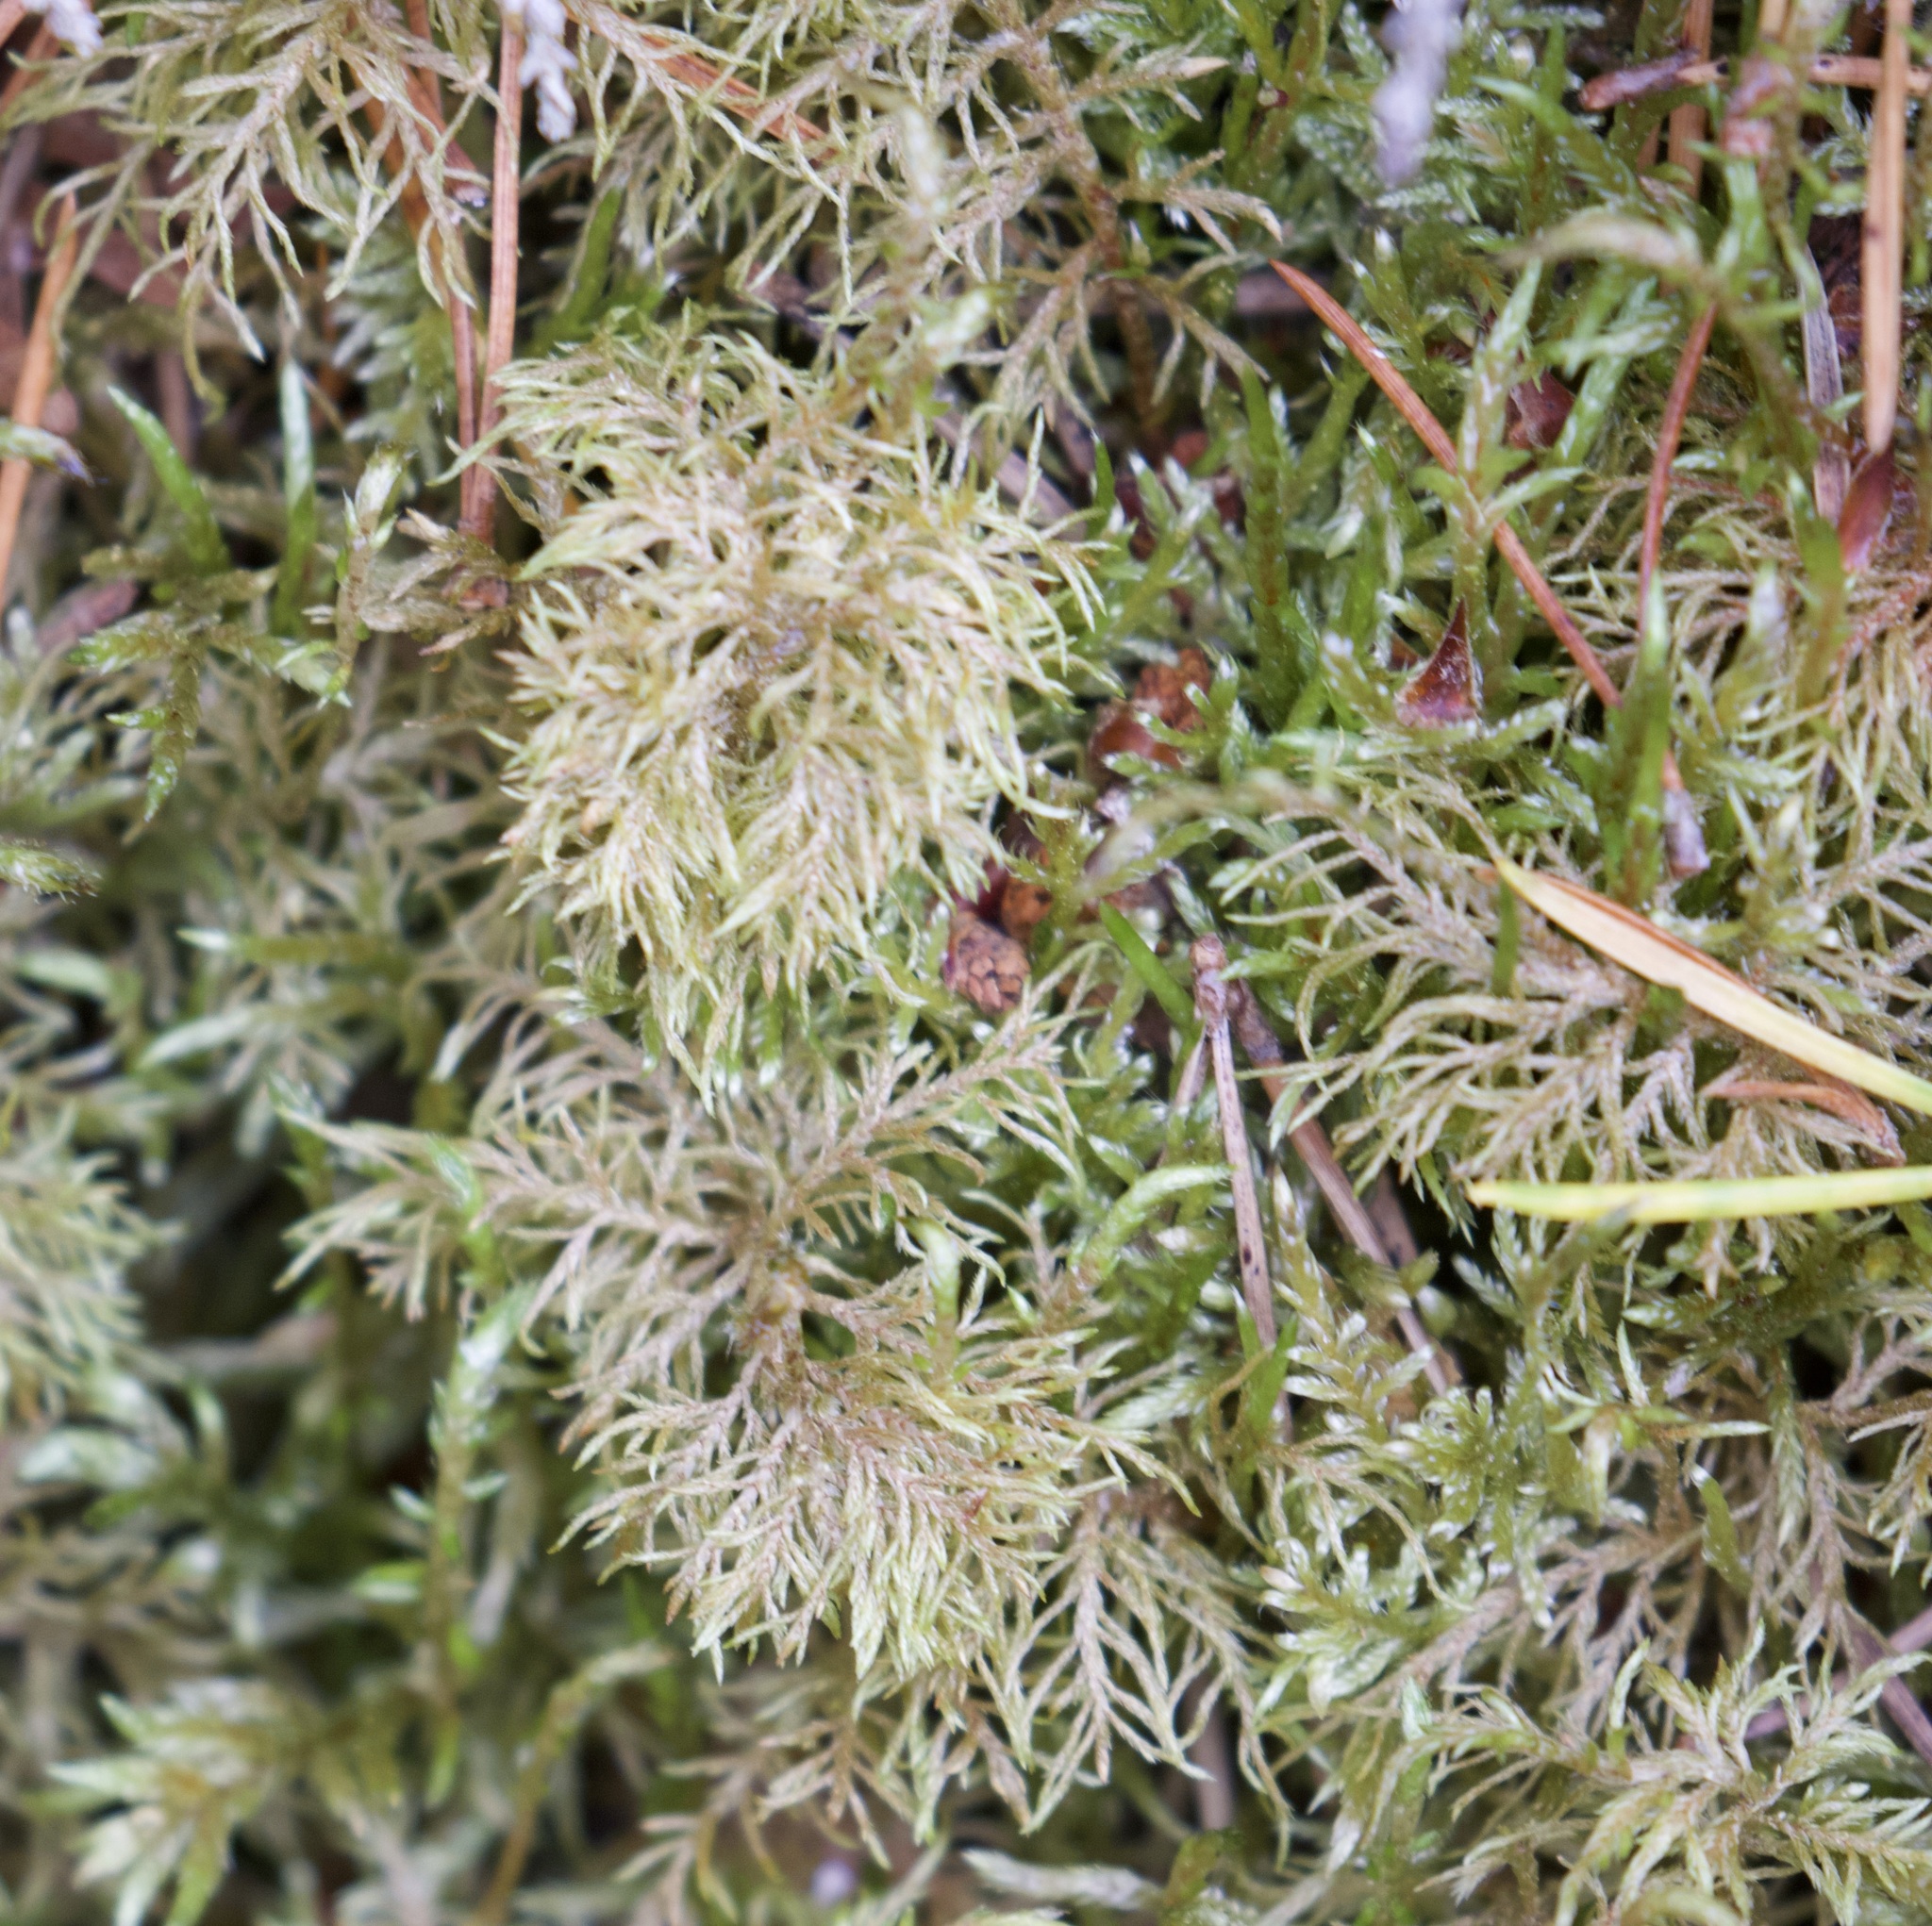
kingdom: Plantae
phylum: Bryophyta
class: Bryopsida
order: Hypnales
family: Hylocomiaceae
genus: Hylocomium
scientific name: Hylocomium splendens
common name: Stairstep moss
